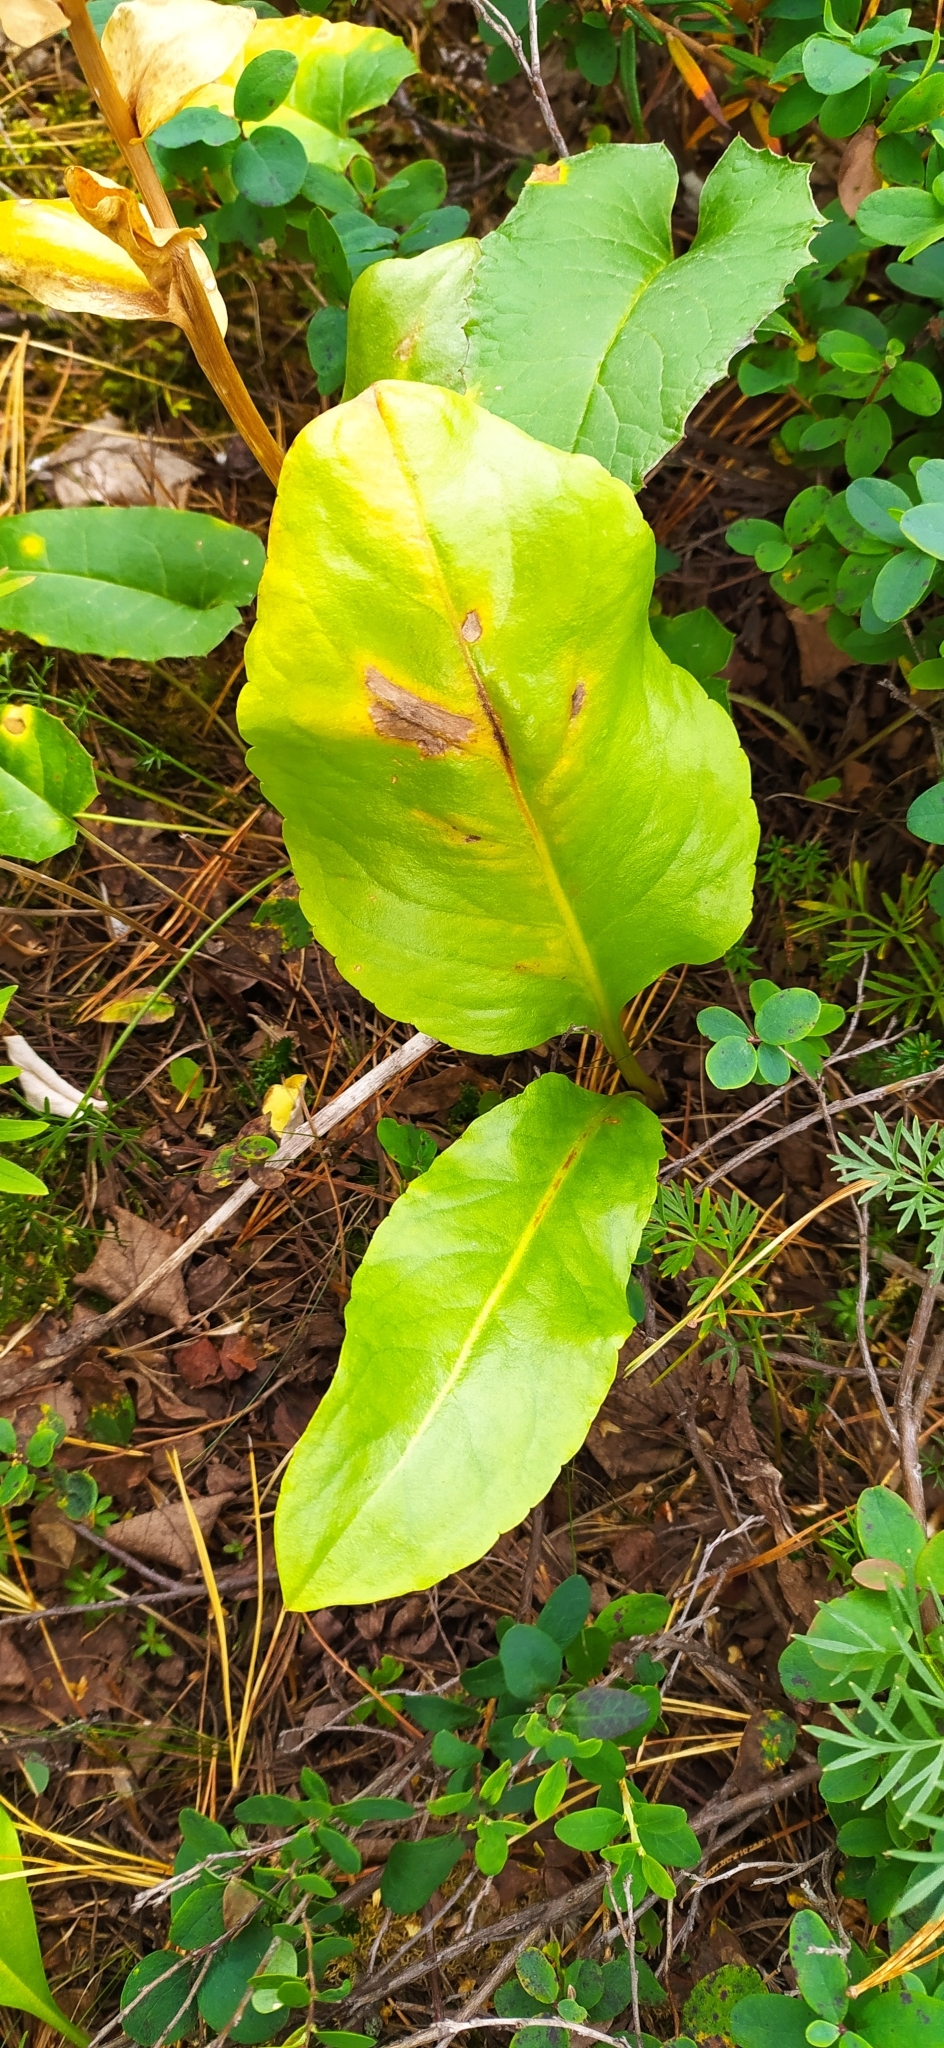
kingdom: Plantae
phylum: Tracheophyta
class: Magnoliopsida
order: Lamiales
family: Plantaginaceae
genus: Lagotis
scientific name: Lagotis uralensis
